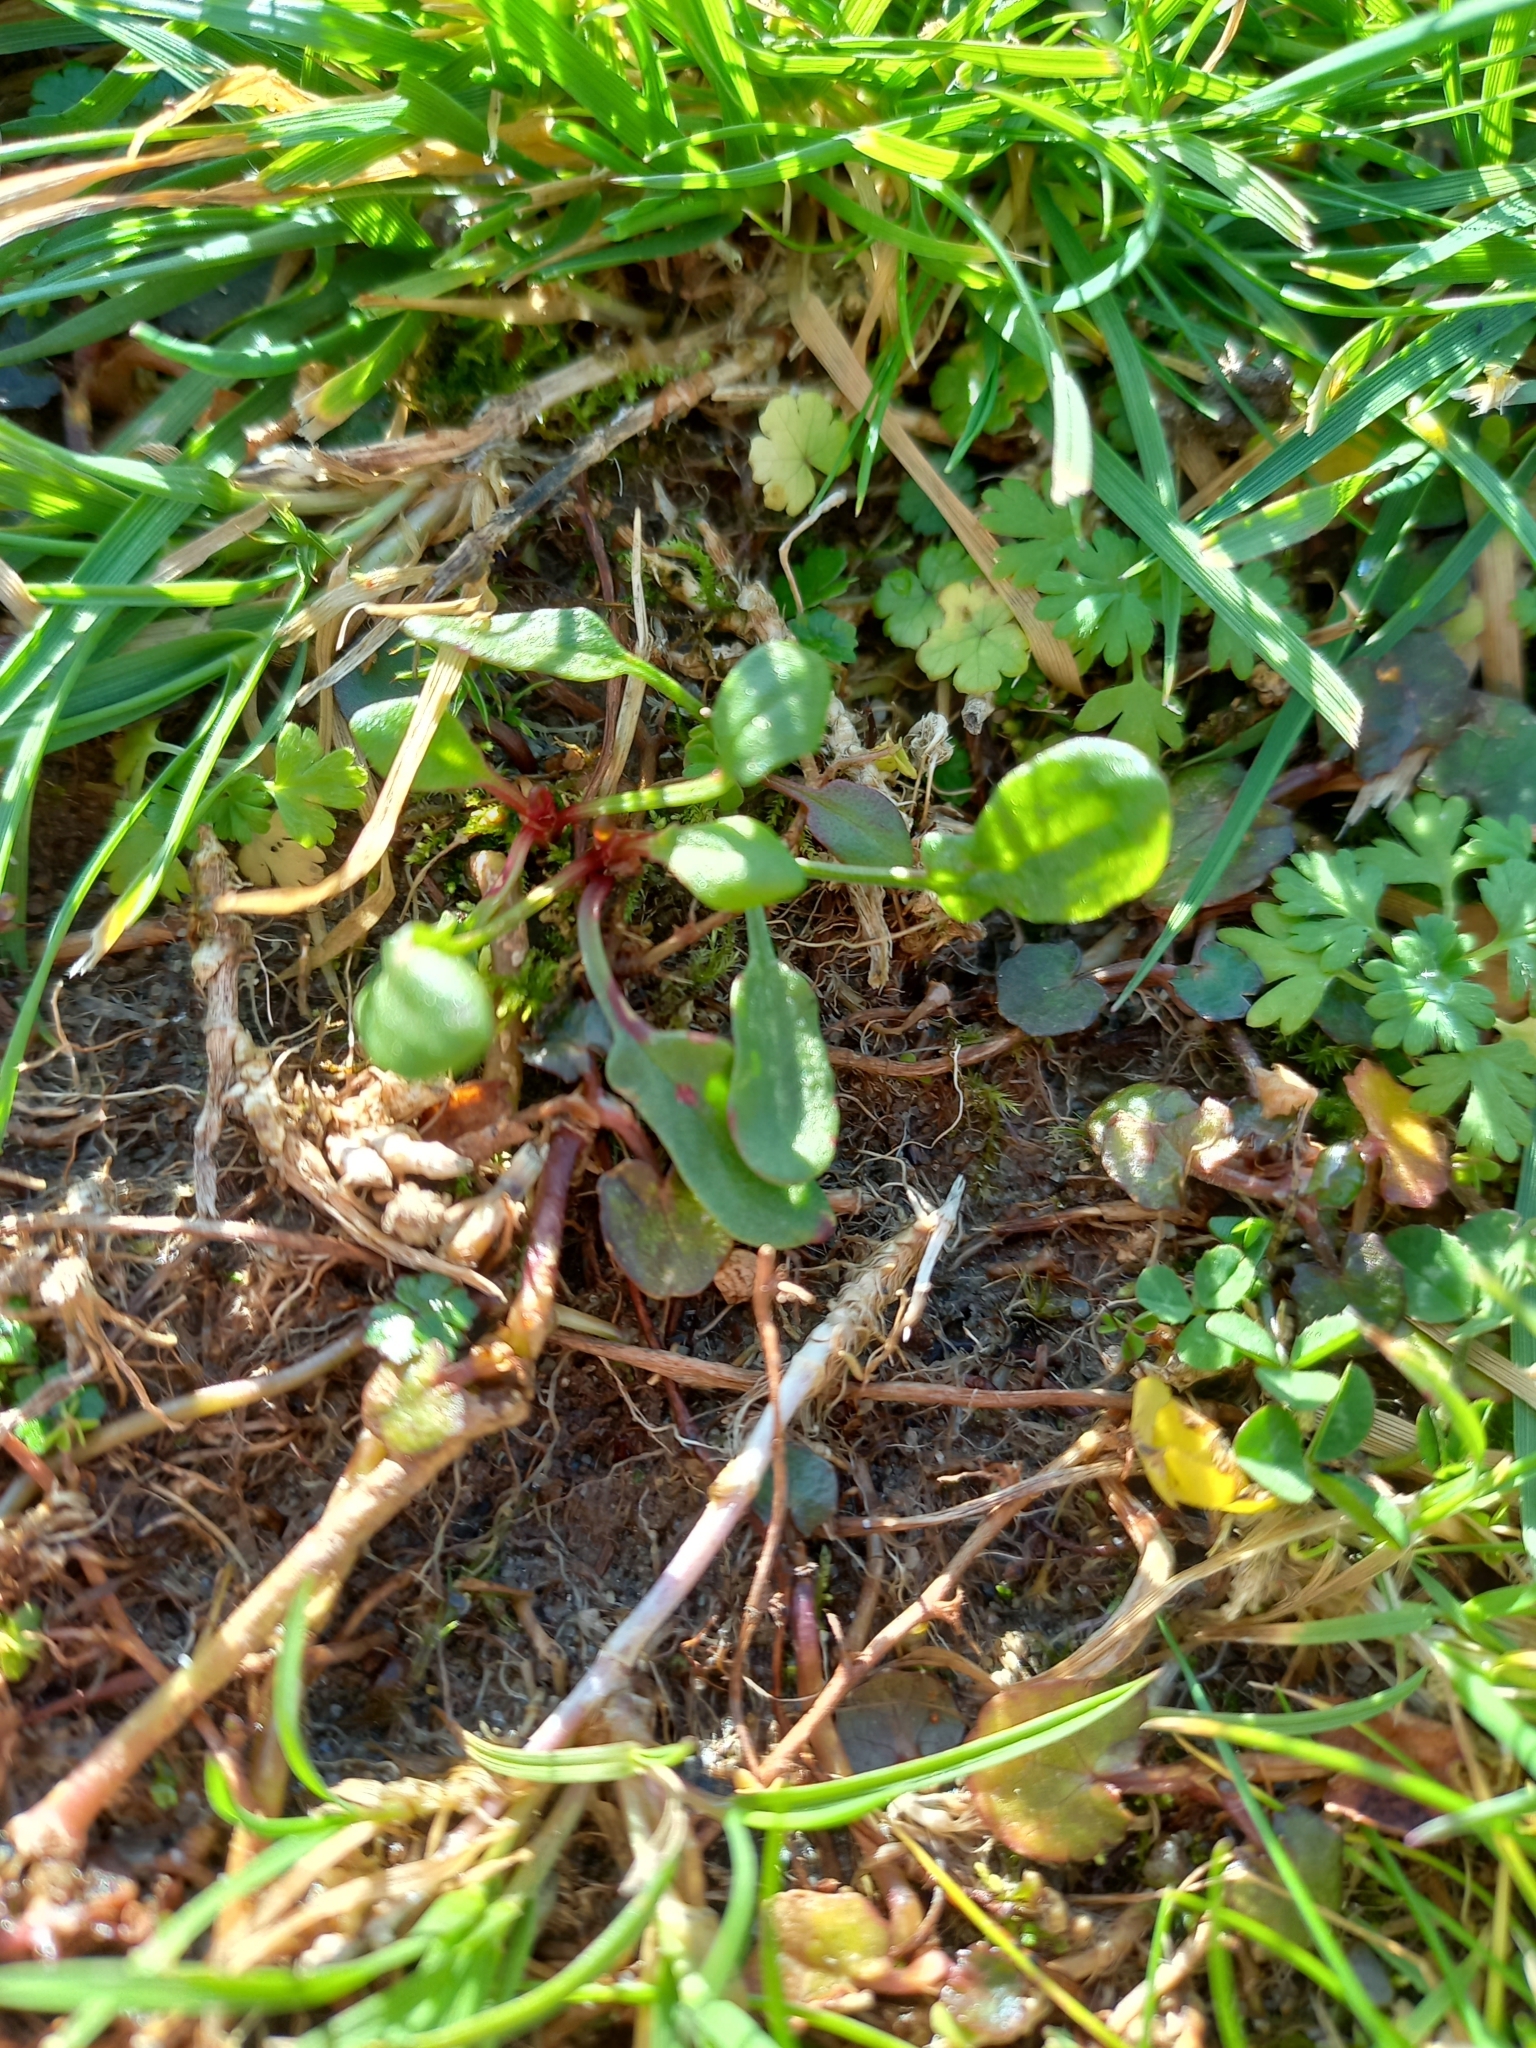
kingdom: Plantae
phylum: Tracheophyta
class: Magnoliopsida
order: Caryophyllales
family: Polygonaceae
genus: Rumex
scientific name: Rumex acetosella
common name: Common sheep sorrel
